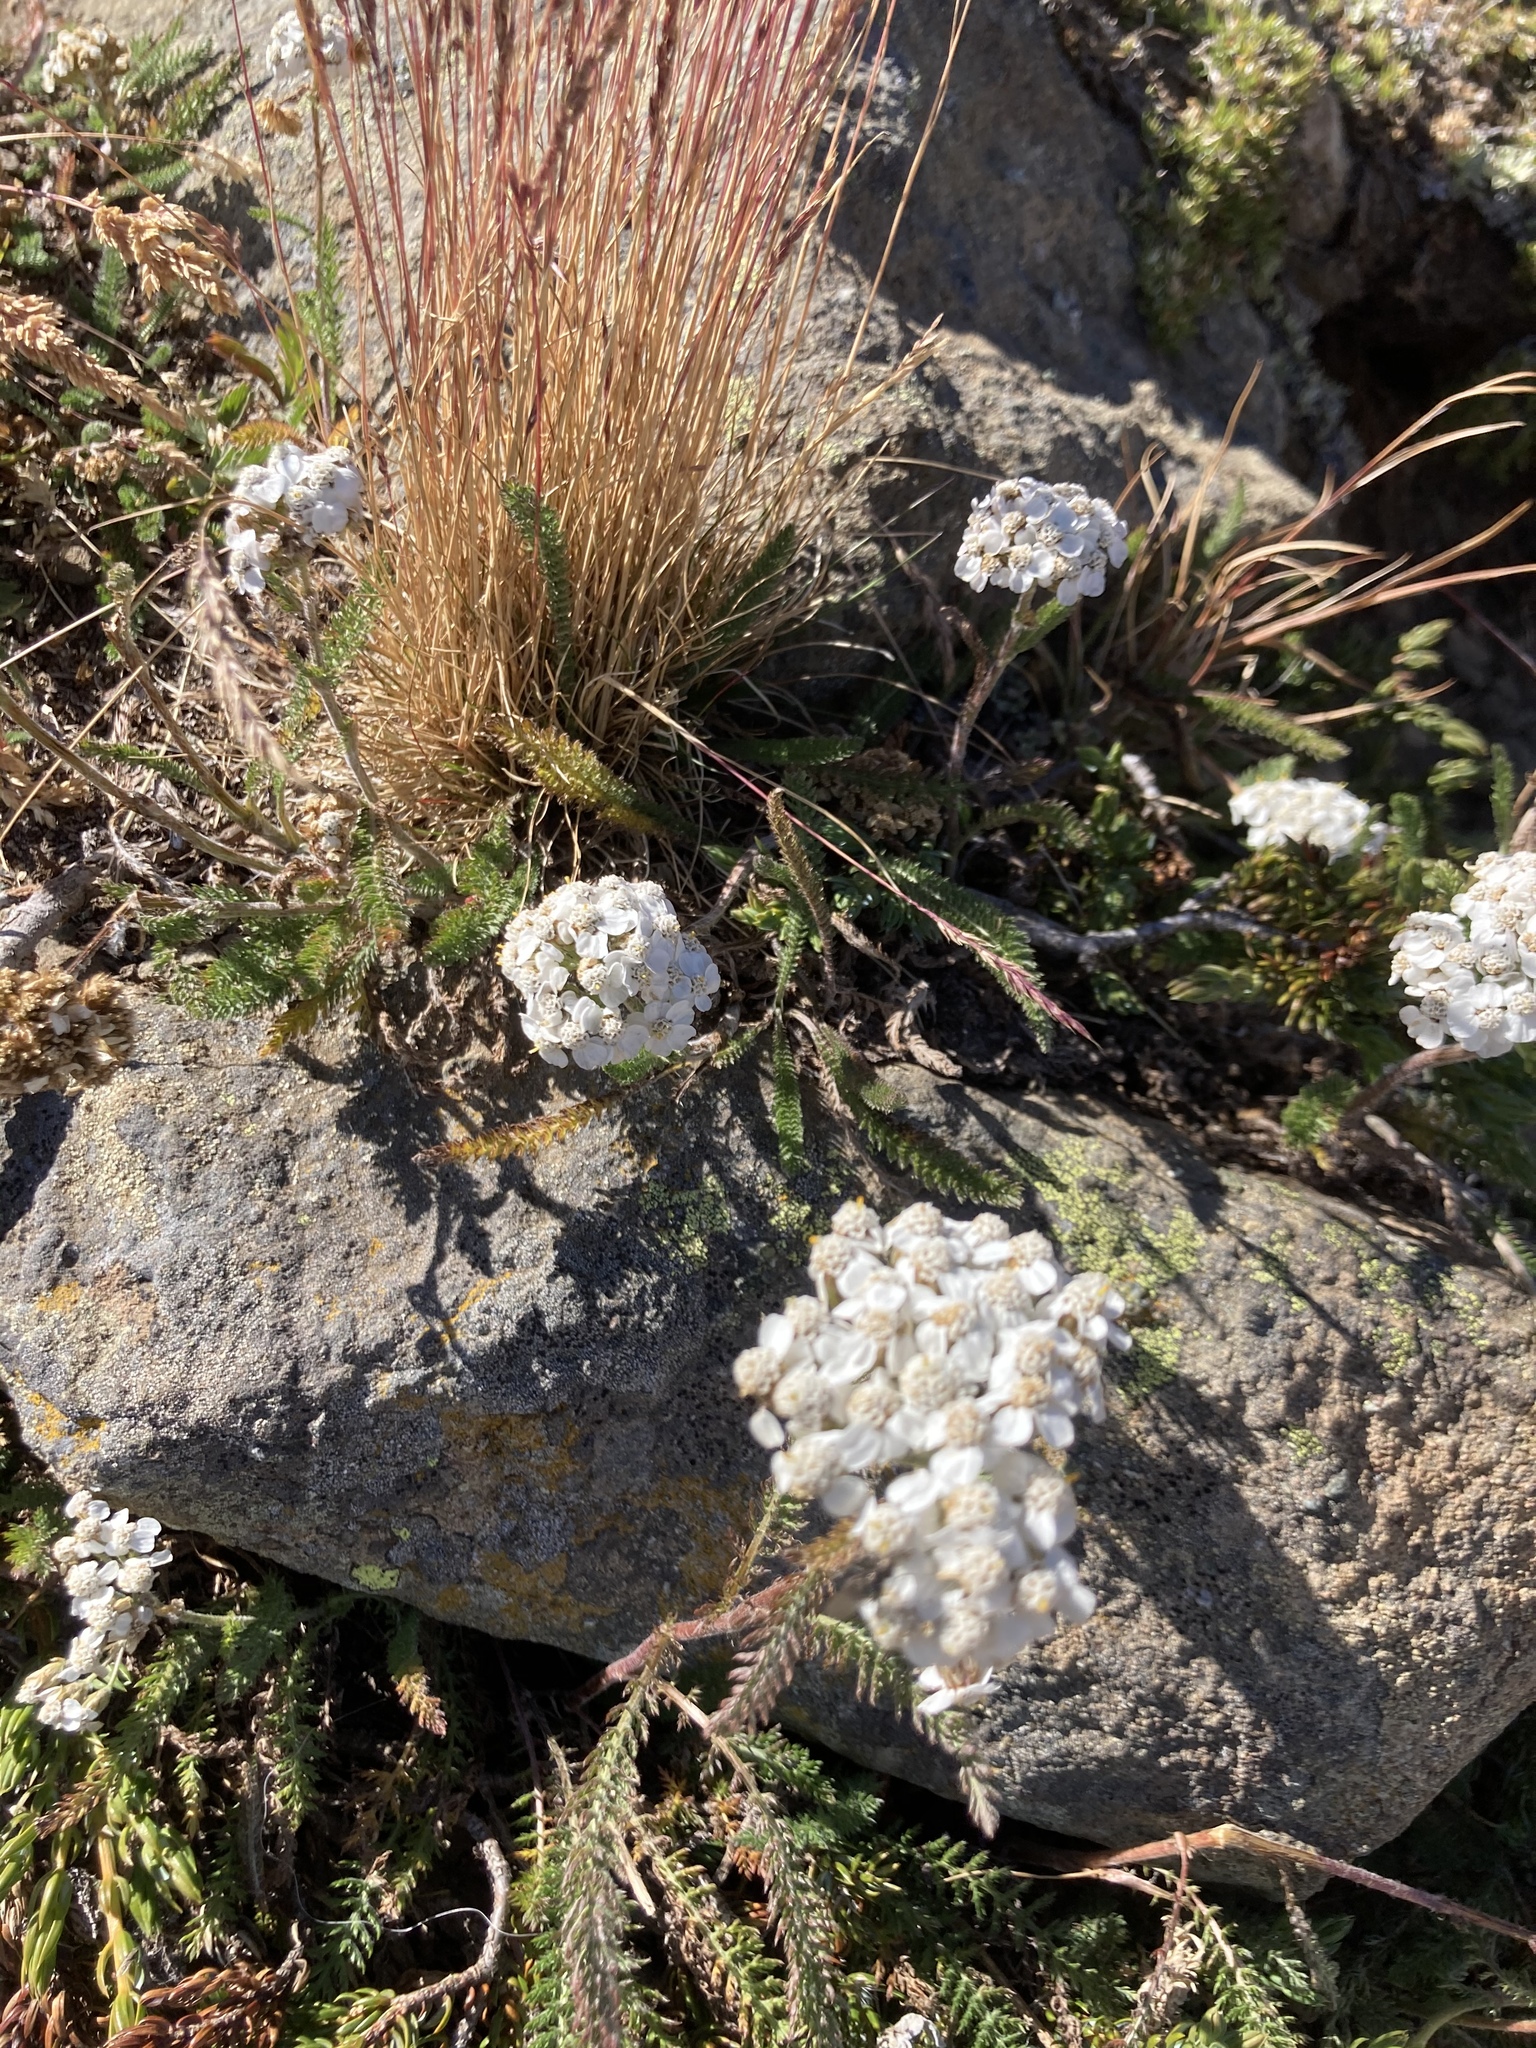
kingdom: Plantae
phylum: Tracheophyta
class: Magnoliopsida
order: Asterales
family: Asteraceae
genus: Achillea
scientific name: Achillea millefolium
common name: Yarrow
